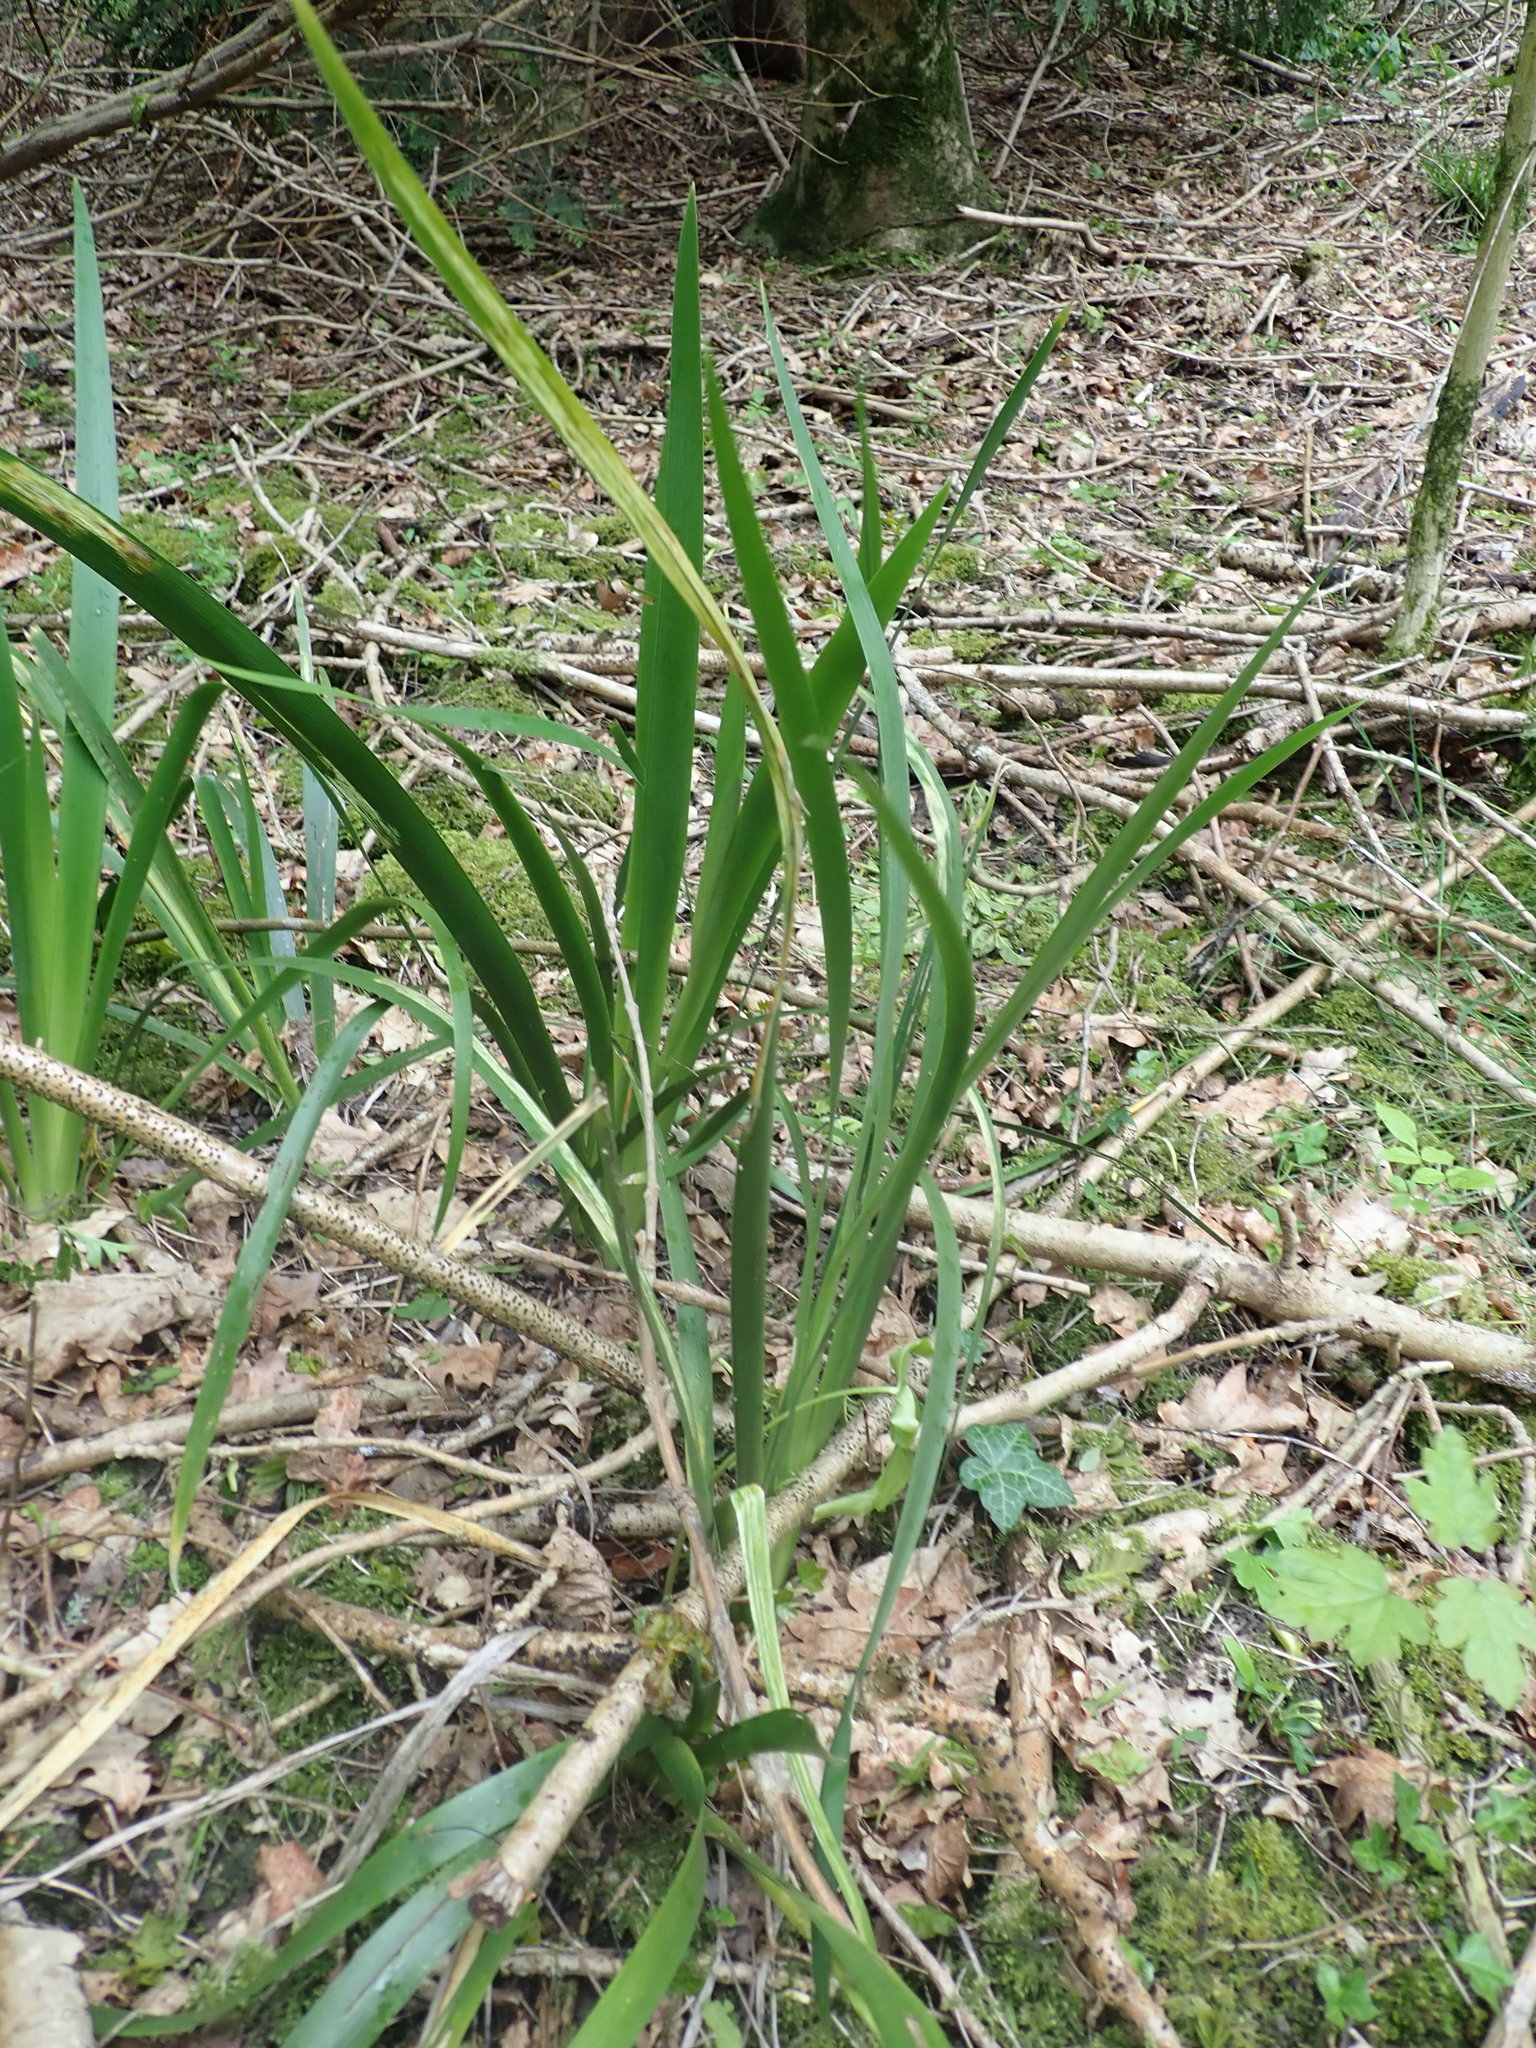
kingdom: Plantae
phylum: Tracheophyta
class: Liliopsida
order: Asparagales
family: Iridaceae
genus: Iris
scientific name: Iris foetidissima
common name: Stinking iris
